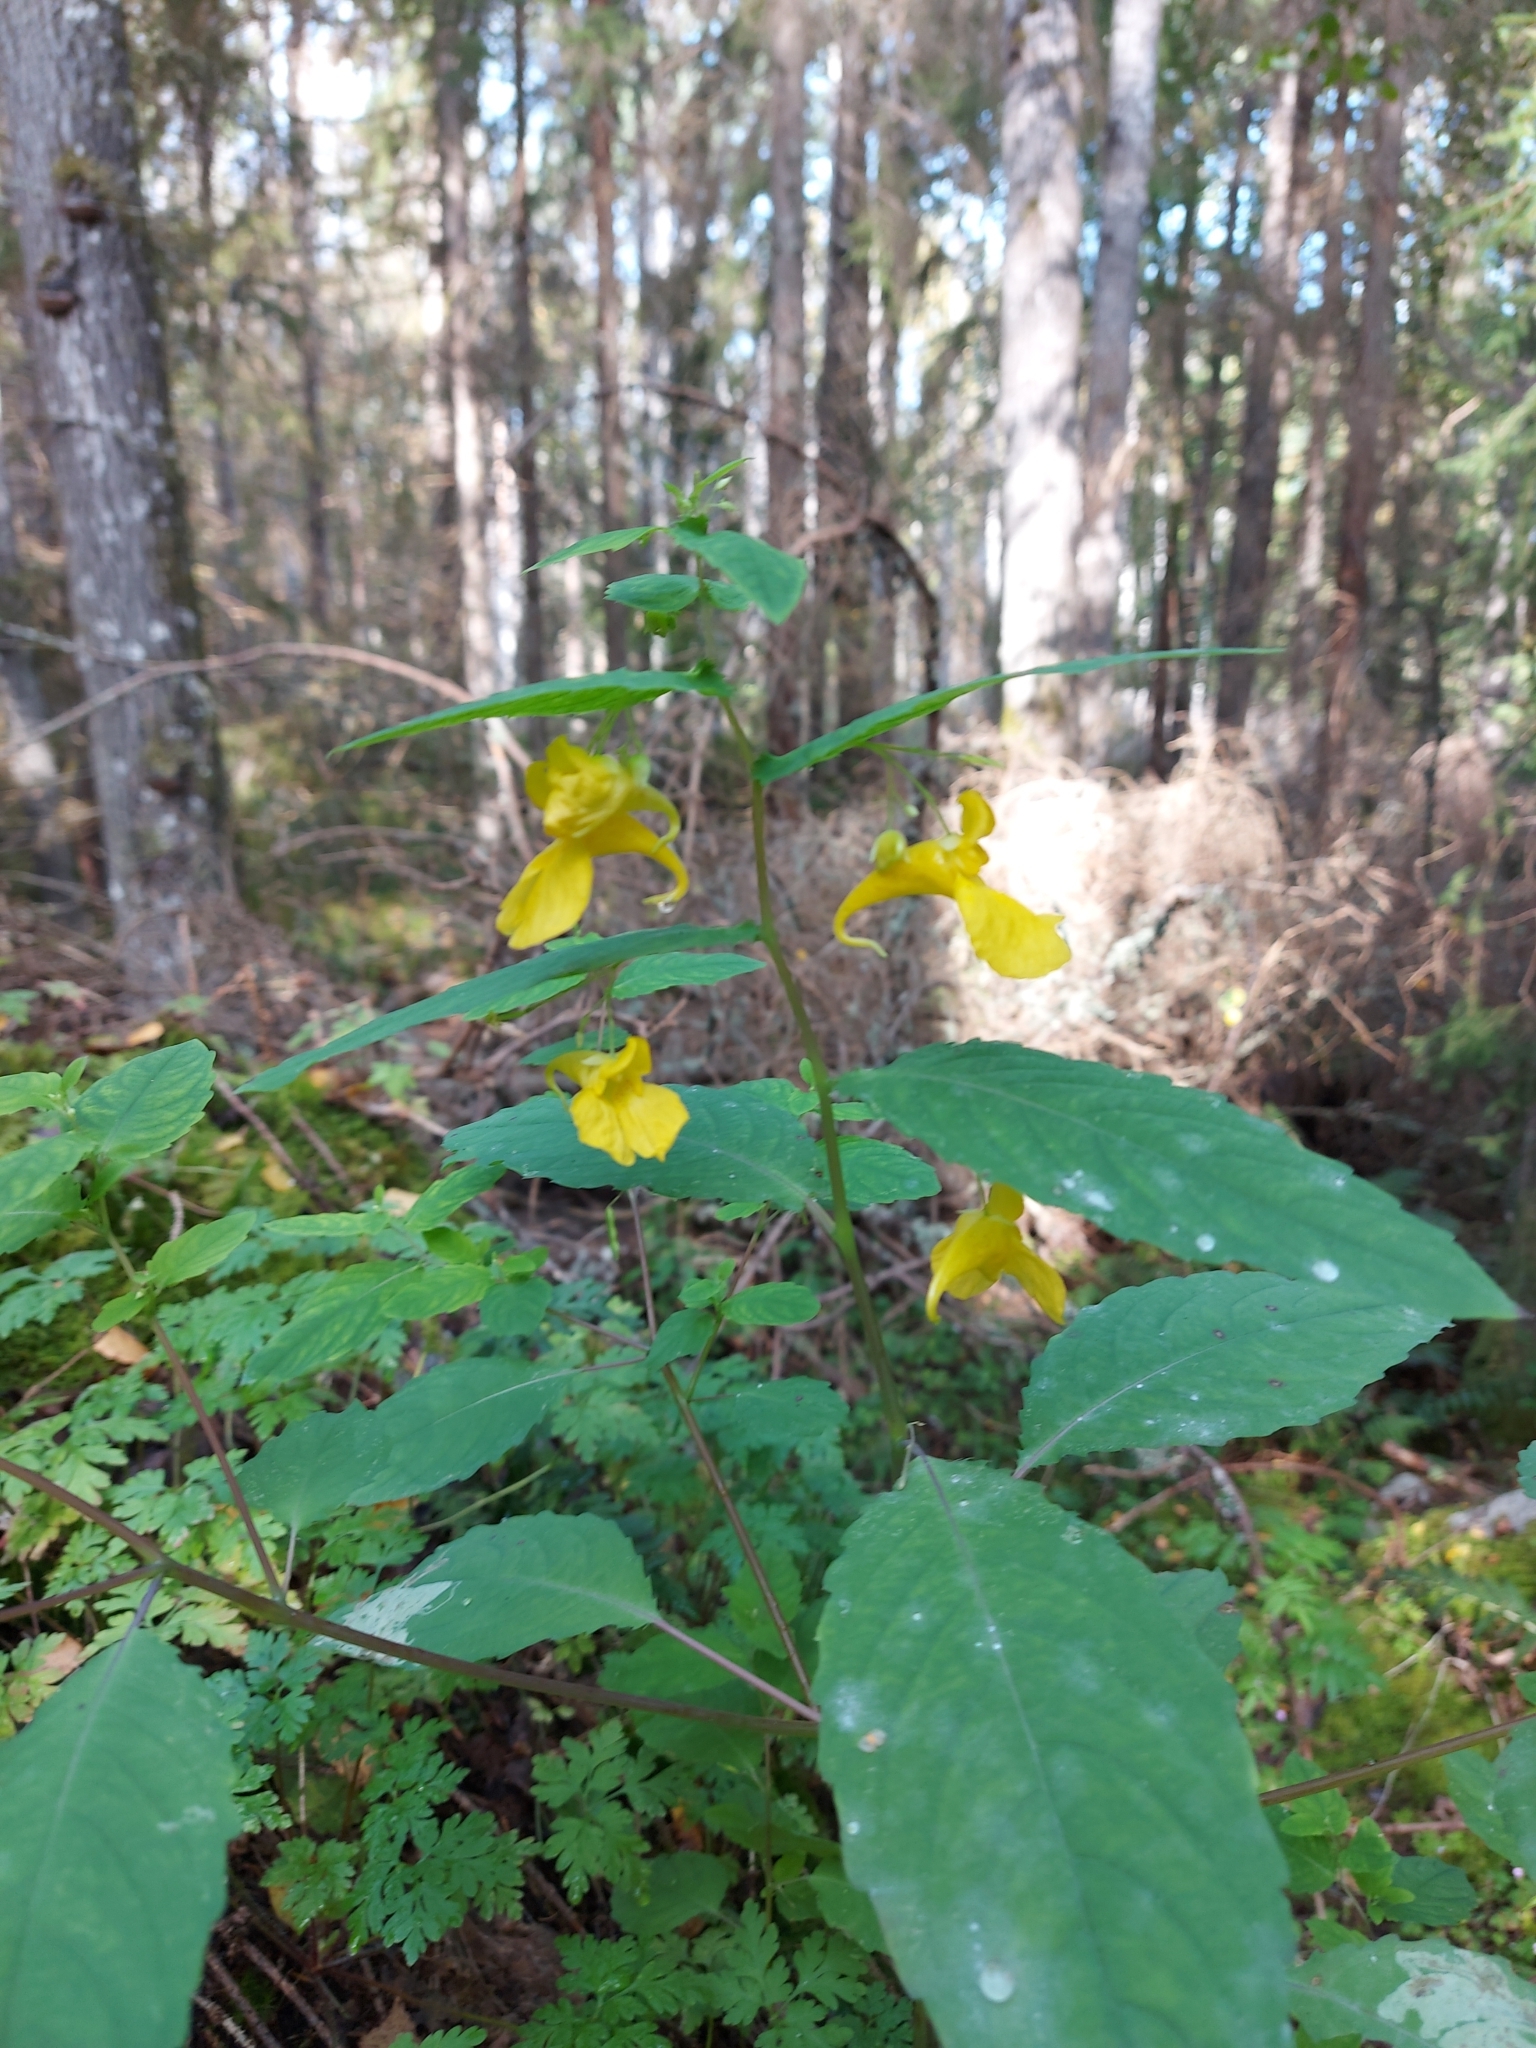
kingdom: Plantae
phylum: Tracheophyta
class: Magnoliopsida
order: Ericales
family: Balsaminaceae
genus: Impatiens
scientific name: Impatiens noli-tangere
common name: Touch-me-not balsam
